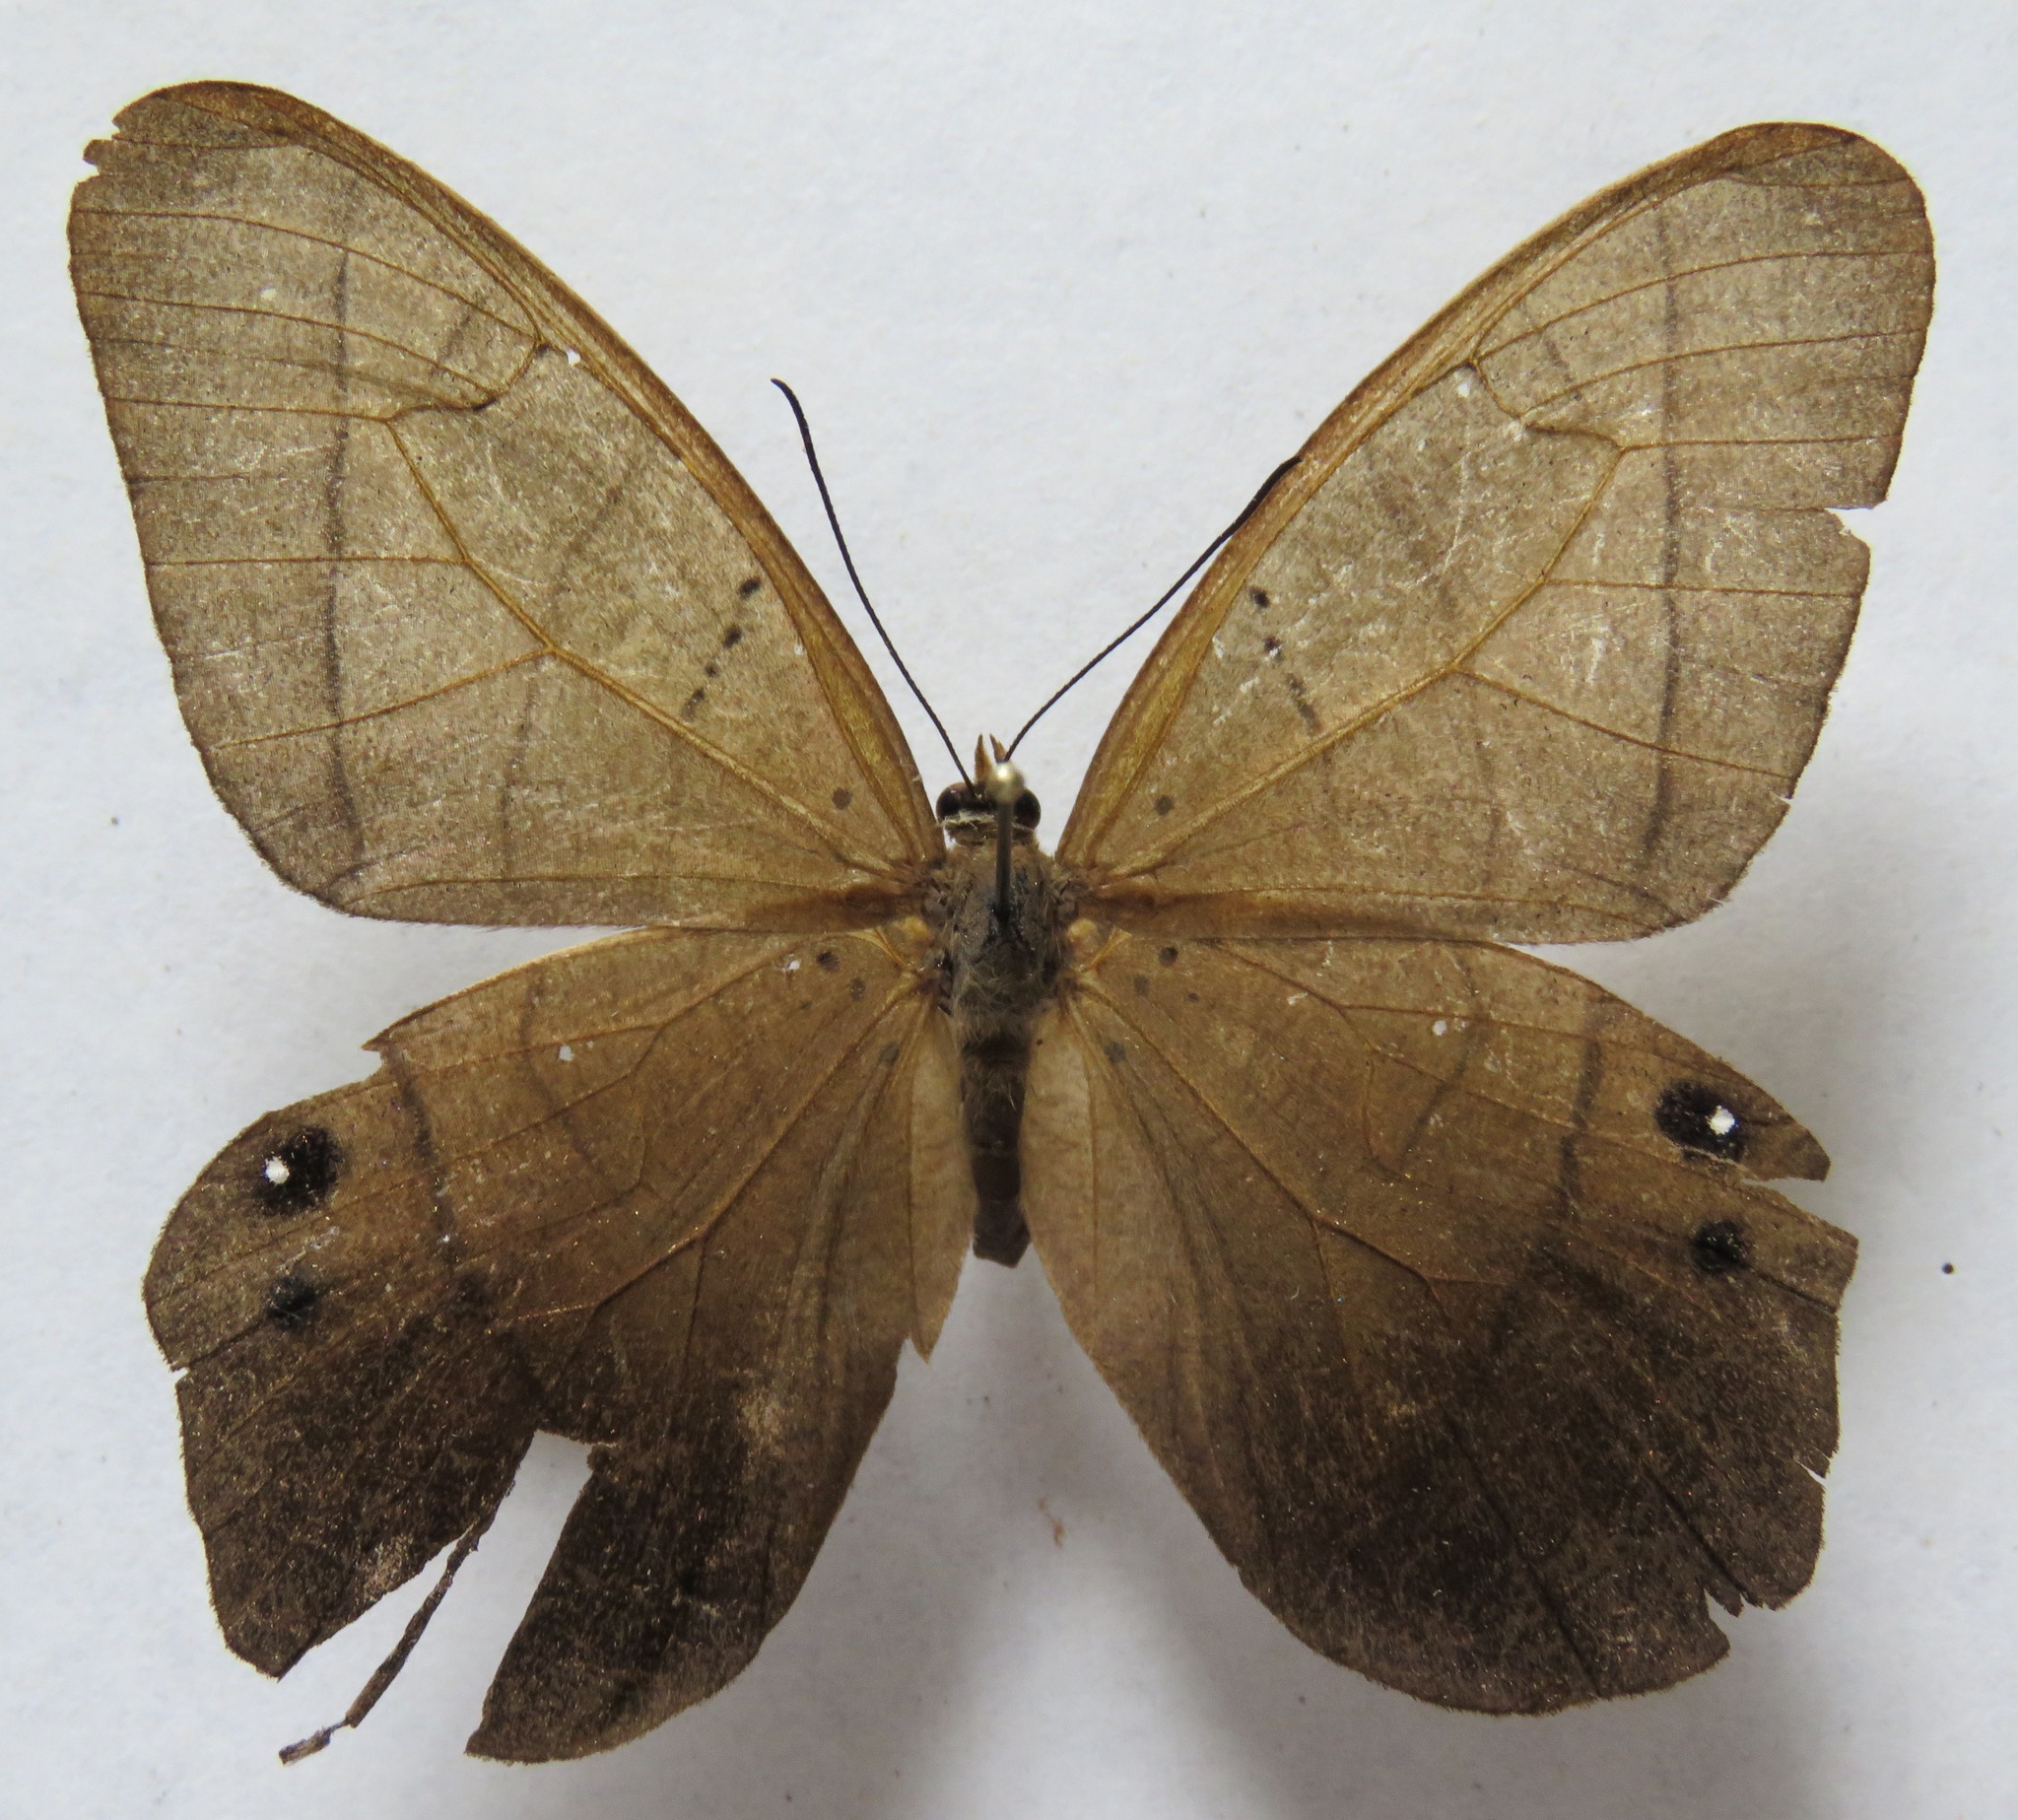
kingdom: Animalia
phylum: Arthropoda
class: Insecta
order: Lepidoptera
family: Nymphalidae
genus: Pierella
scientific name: Pierella luna
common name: Moon satyr
